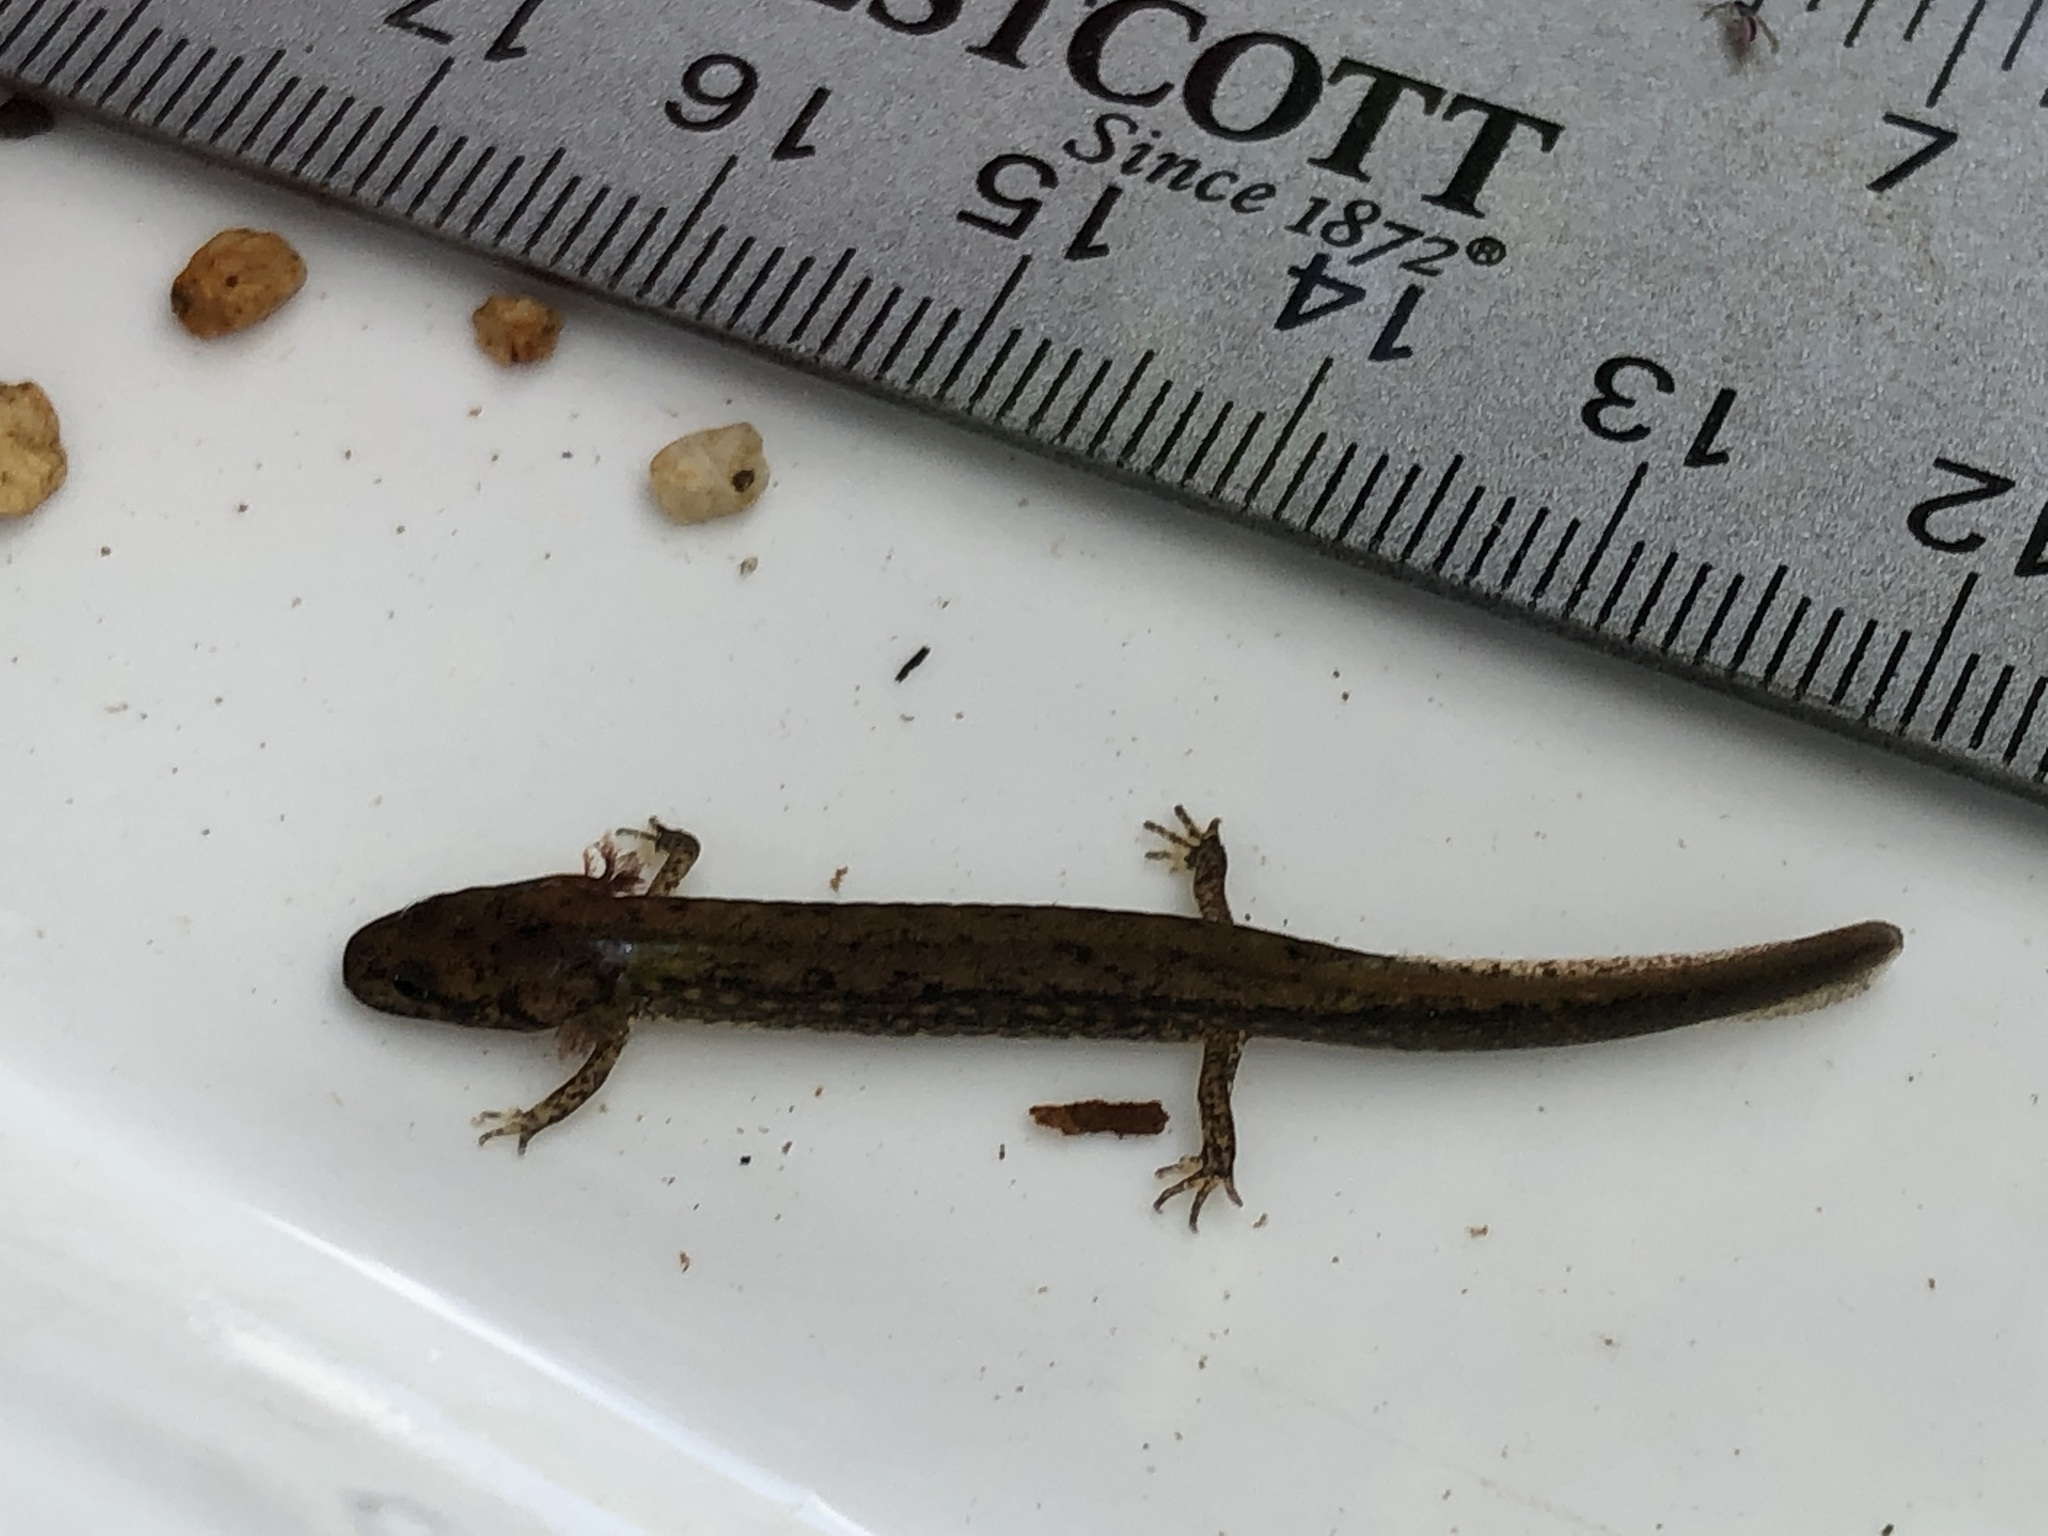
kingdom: Animalia
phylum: Chordata
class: Amphibia
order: Caudata
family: Plethodontidae
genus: Eurycea
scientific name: Eurycea bislineata
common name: Northern two-lined salamander
